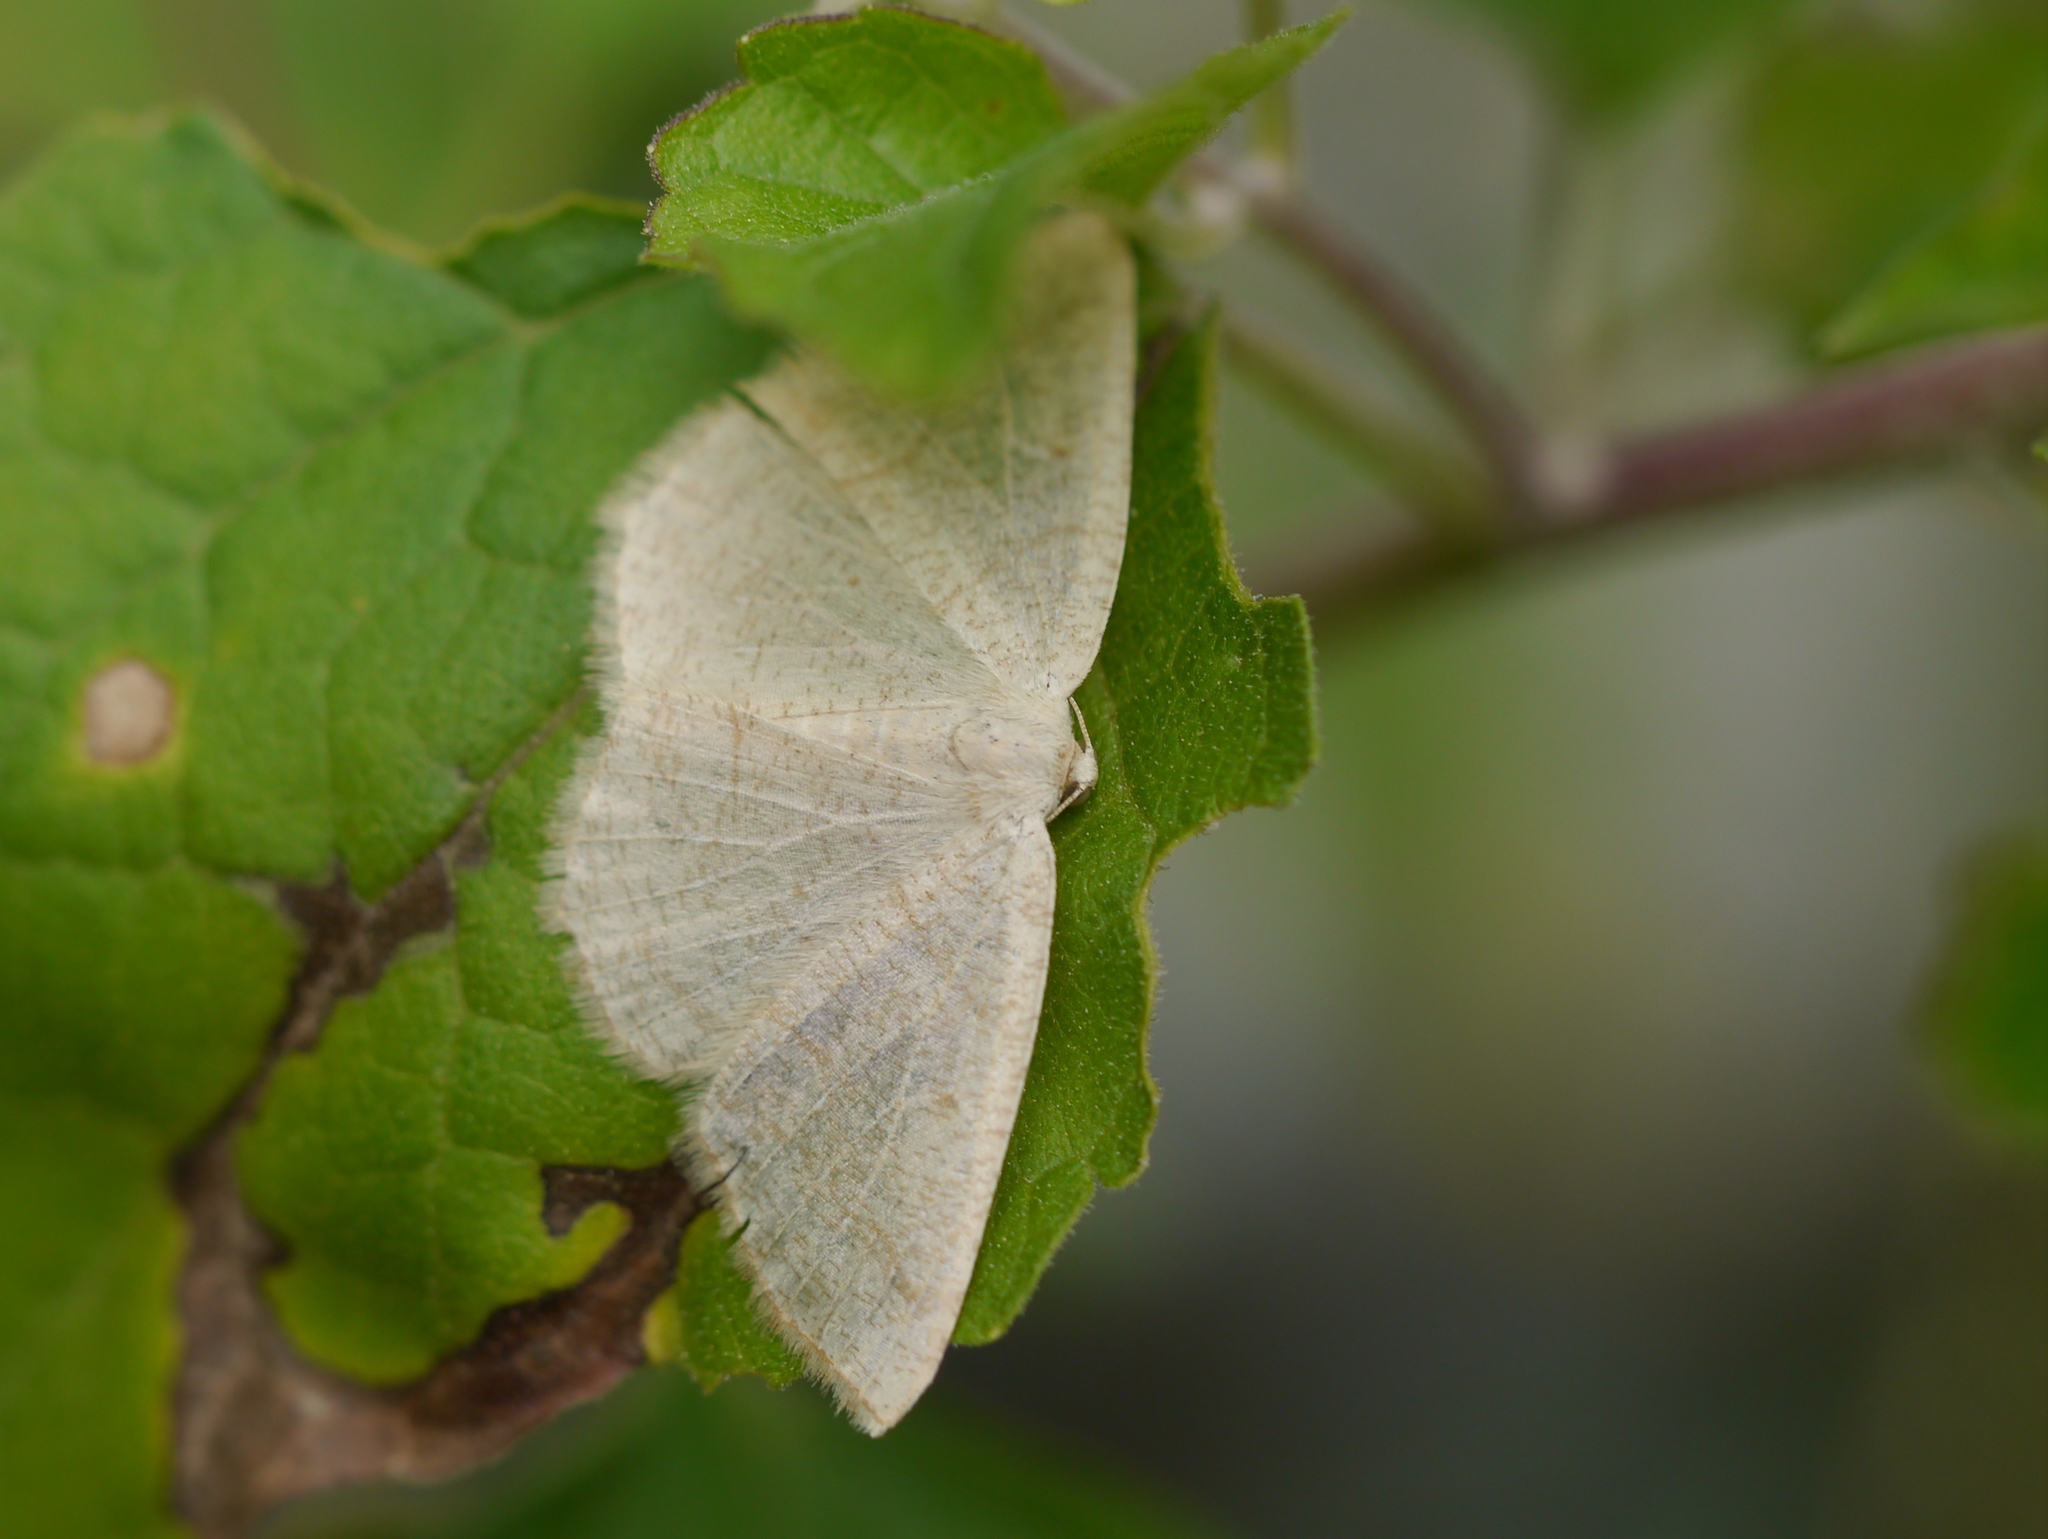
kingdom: Animalia
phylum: Arthropoda
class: Insecta
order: Lepidoptera
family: Geometridae
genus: Destutia
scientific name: Destutia flumenata
